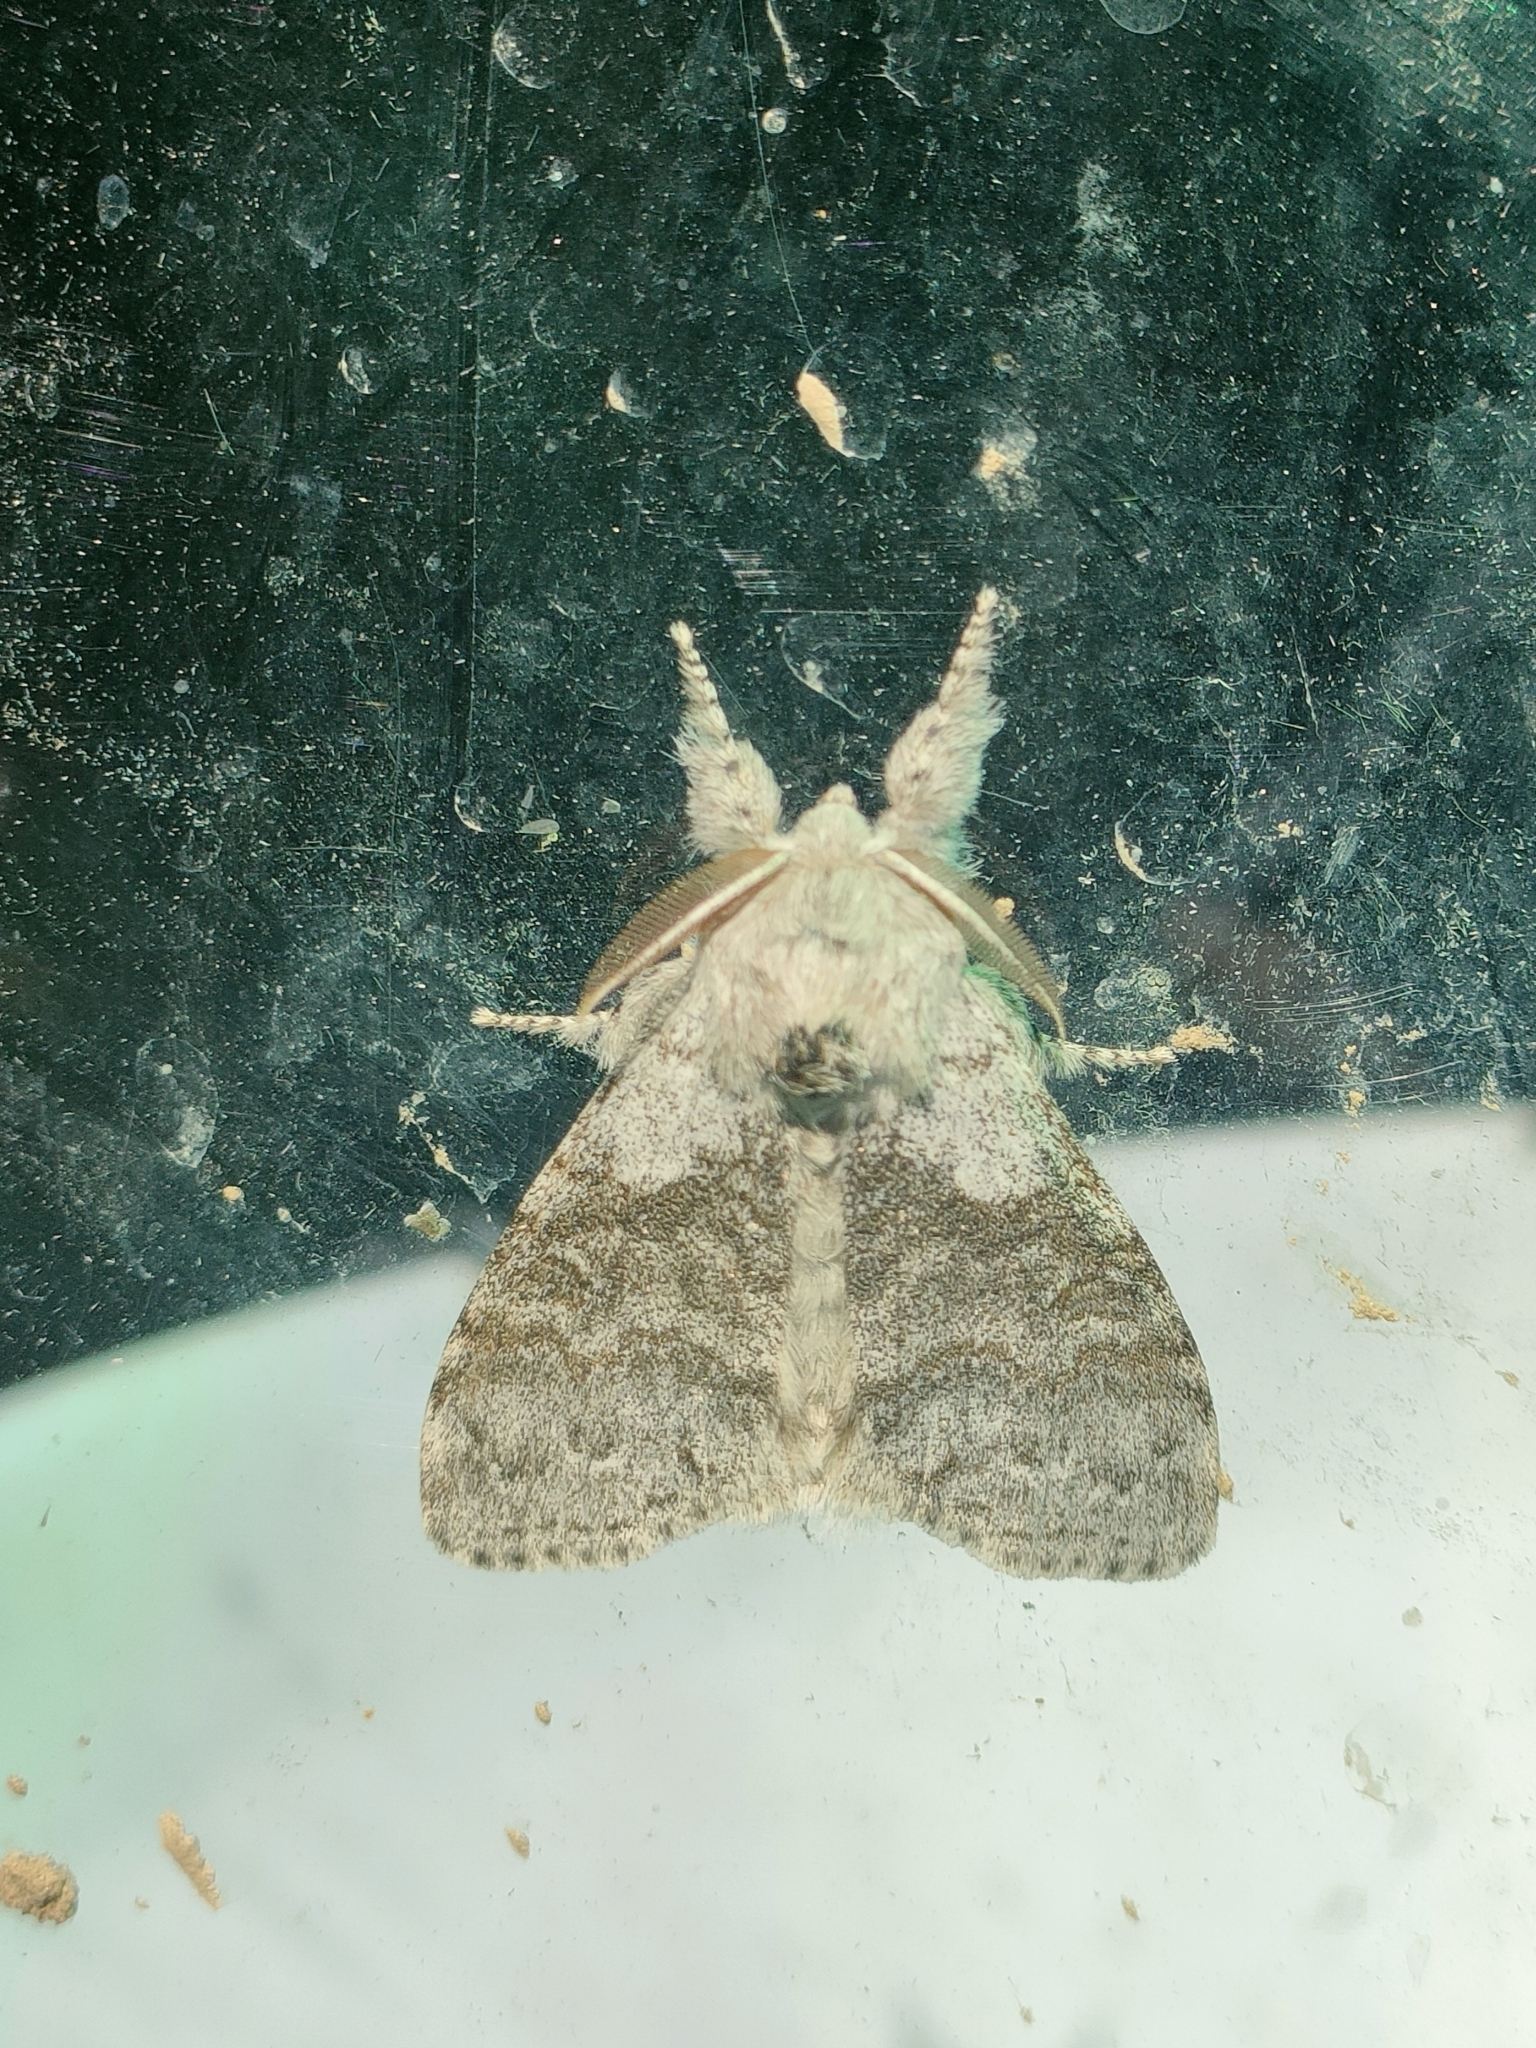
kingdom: Animalia
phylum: Arthropoda
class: Insecta
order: Lepidoptera
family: Erebidae
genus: Calliteara
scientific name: Calliteara pudibunda
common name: Pale tussock
